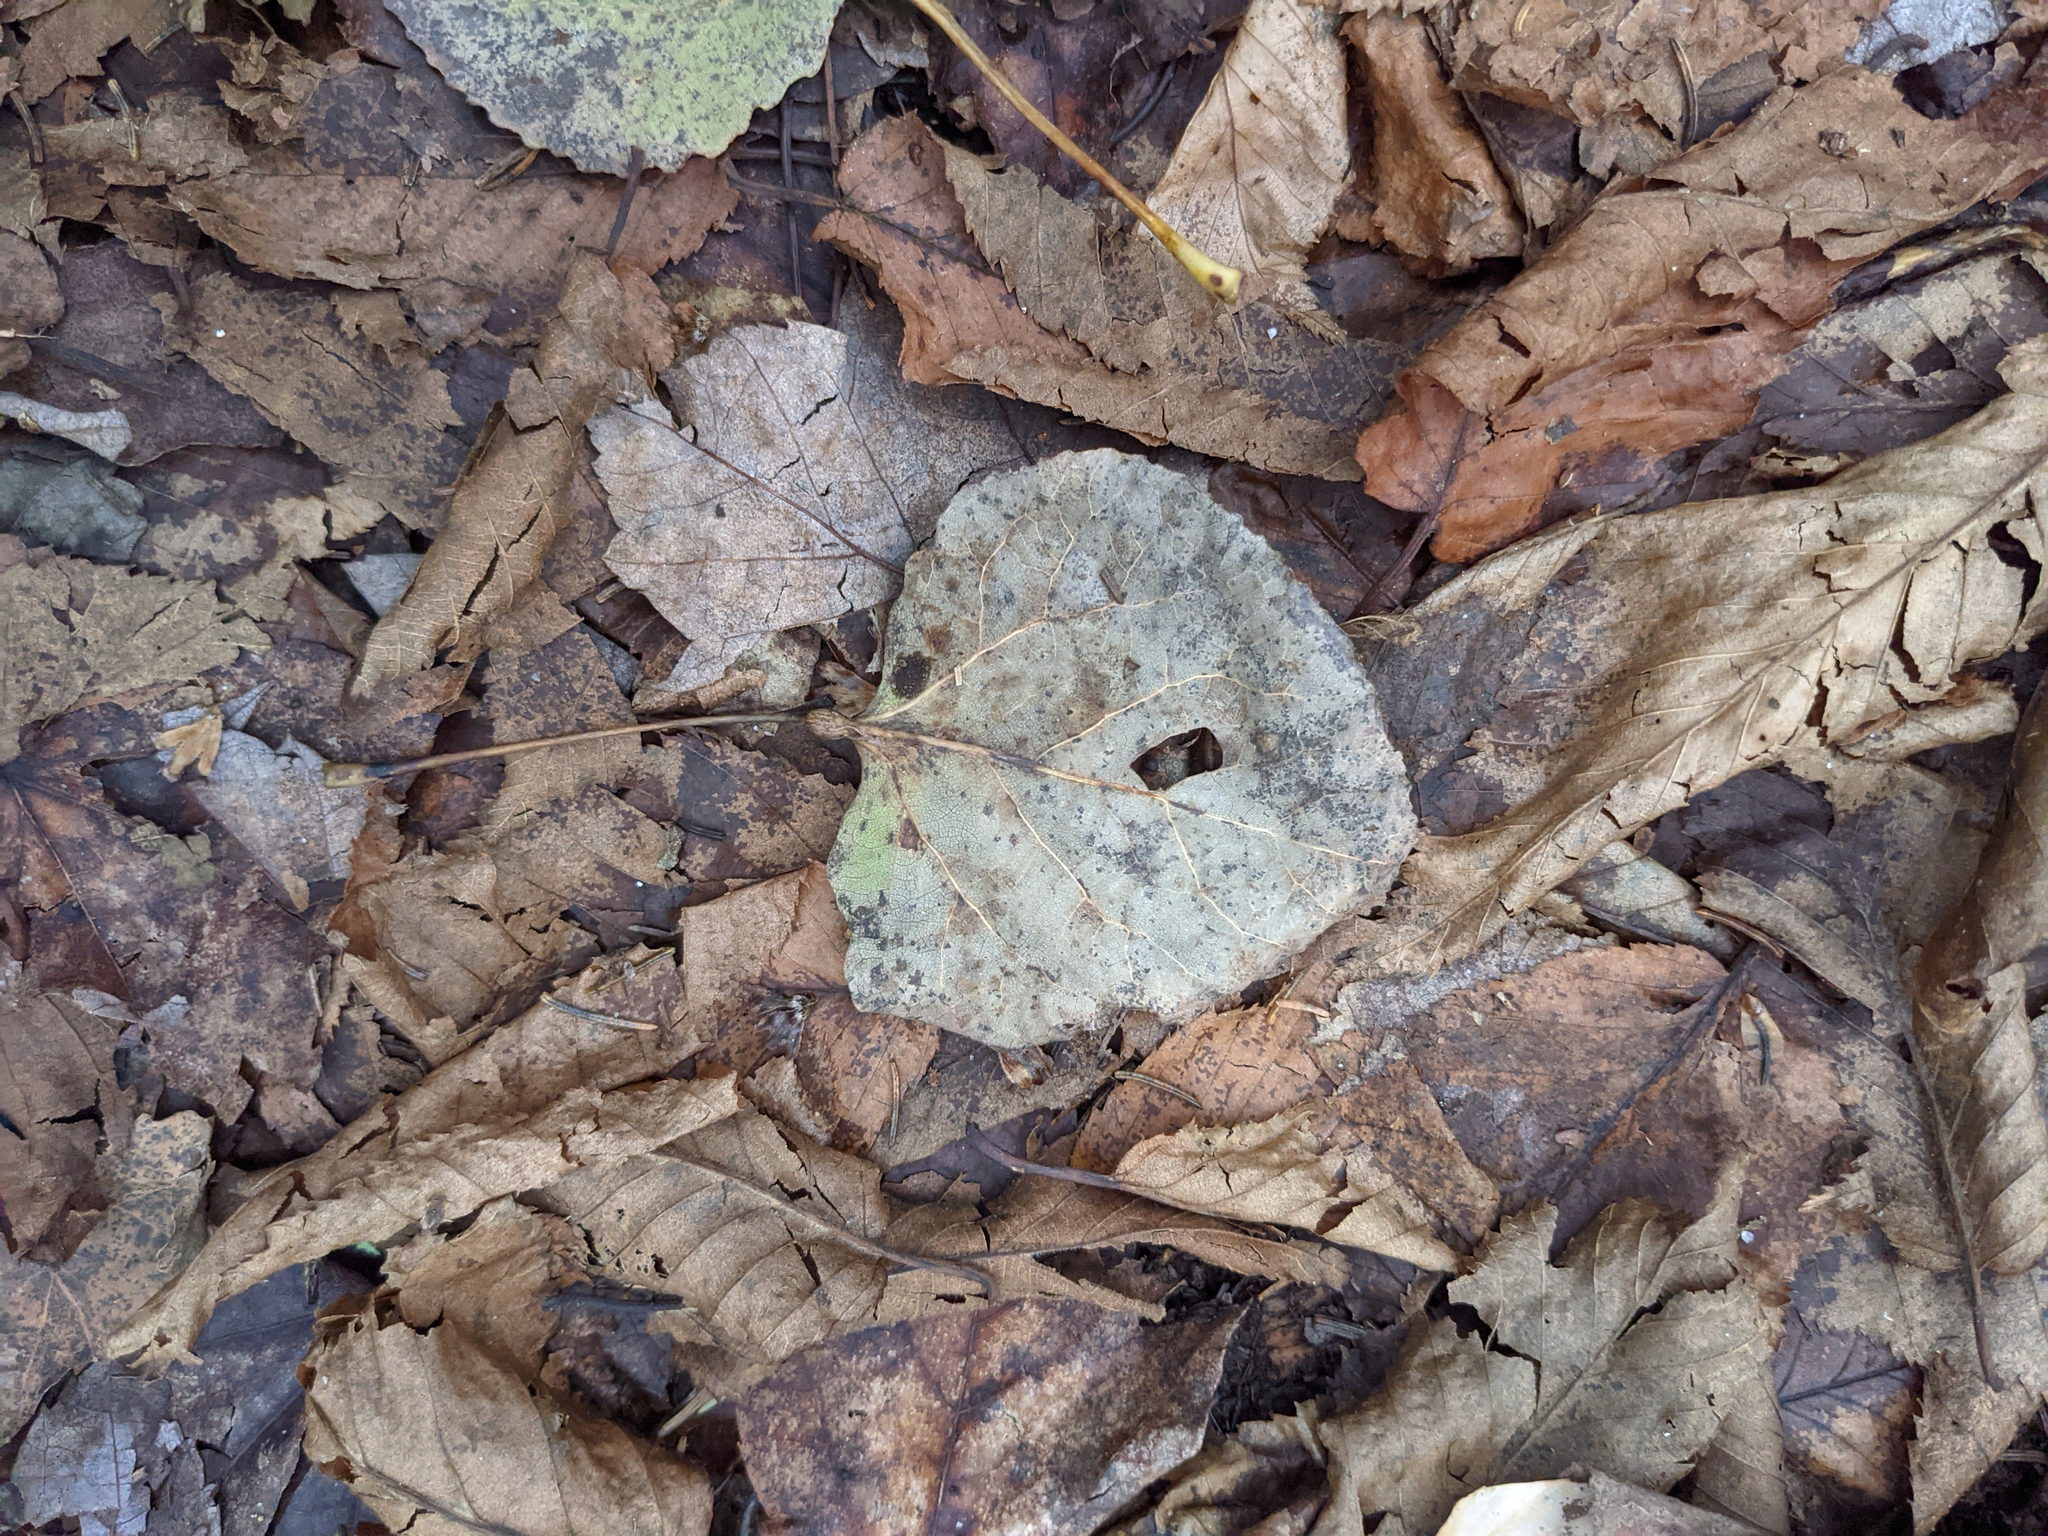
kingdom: Plantae
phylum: Tracheophyta
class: Magnoliopsida
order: Malpighiales
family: Salicaceae
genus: Populus
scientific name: Populus tremuloides
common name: Quaking aspen
